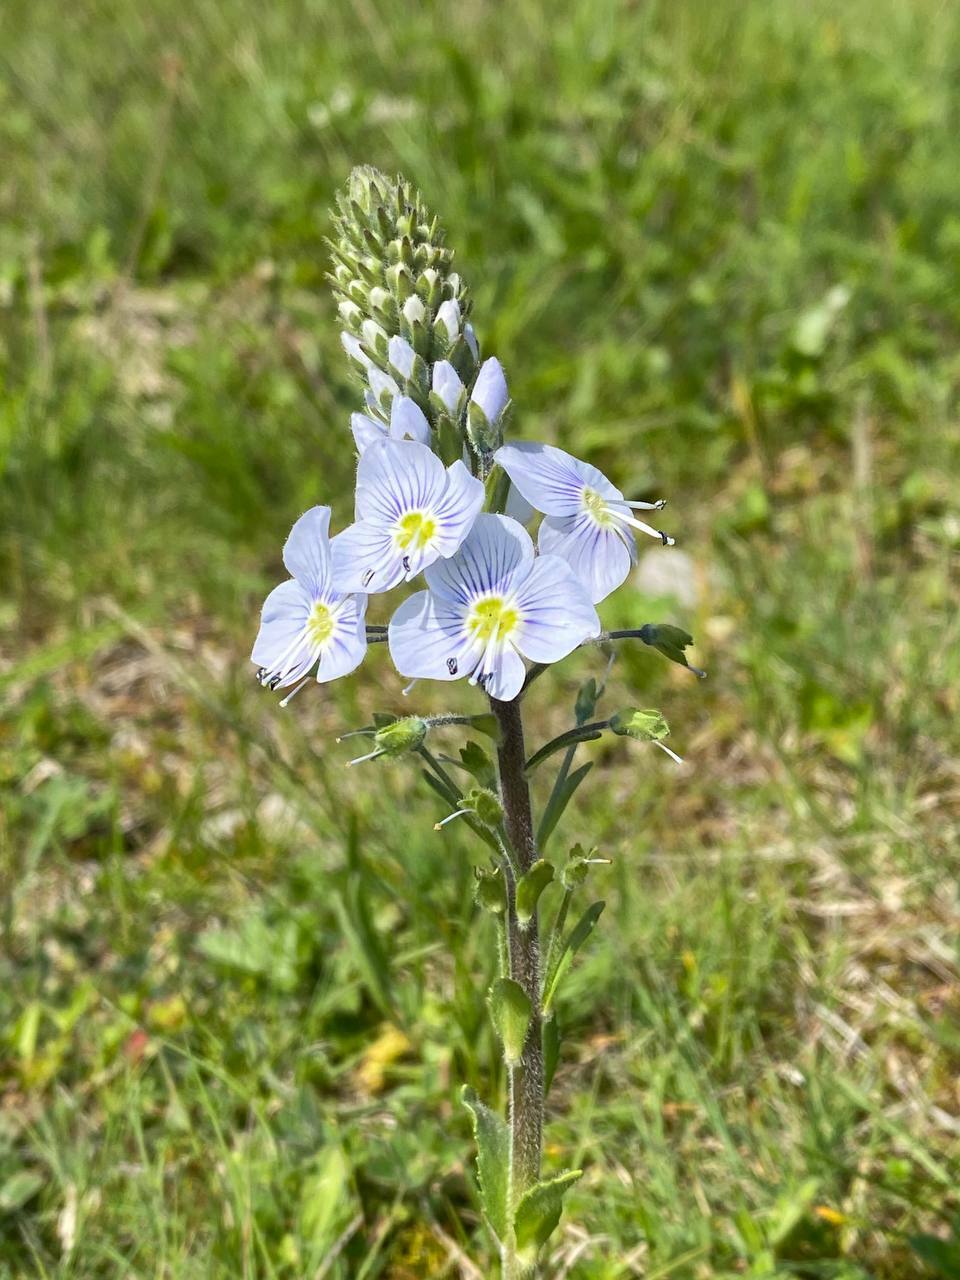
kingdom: Plantae
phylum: Tracheophyta
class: Magnoliopsida
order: Lamiales
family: Plantaginaceae
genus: Veronica
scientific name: Veronica gentianoides
